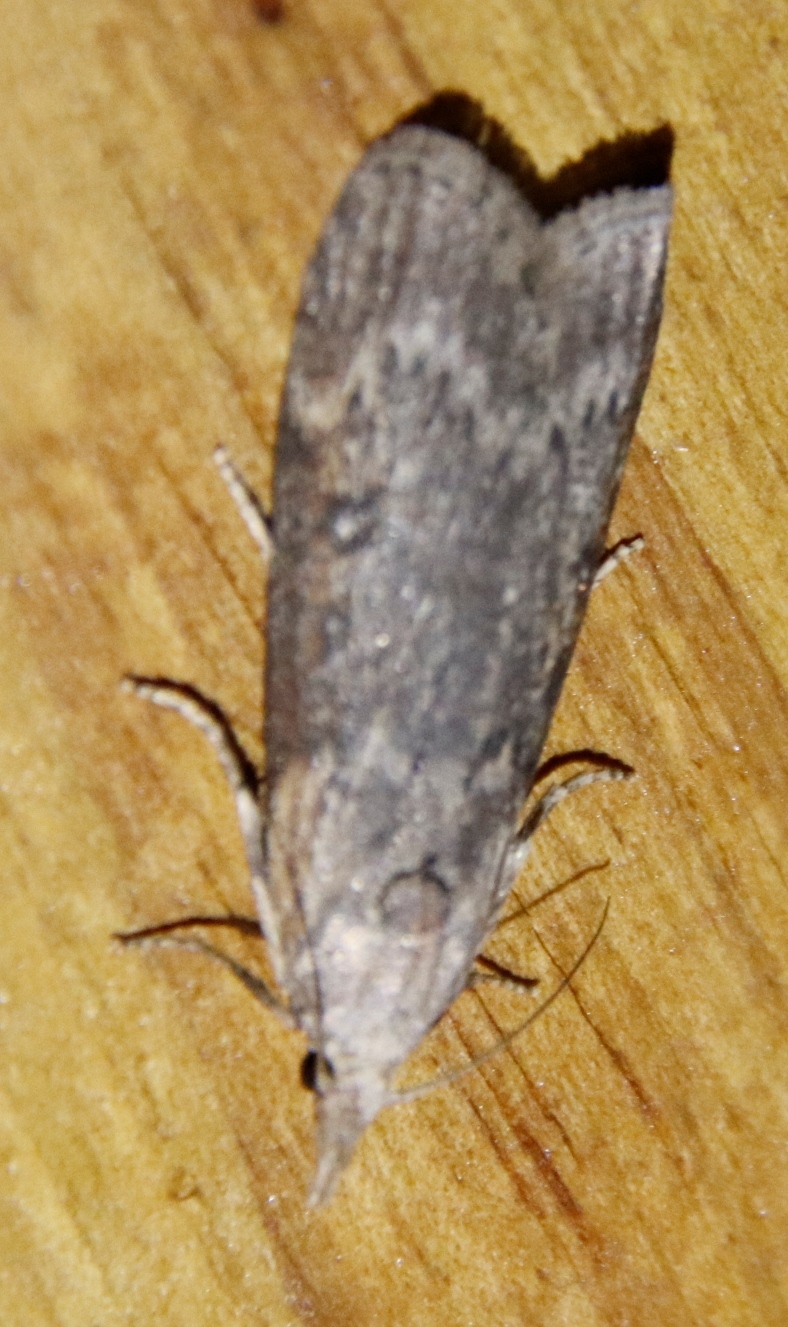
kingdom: Animalia
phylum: Arthropoda
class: Insecta
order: Lepidoptera
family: Pyralidae
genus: Lamoria
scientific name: Lamoria imbella
